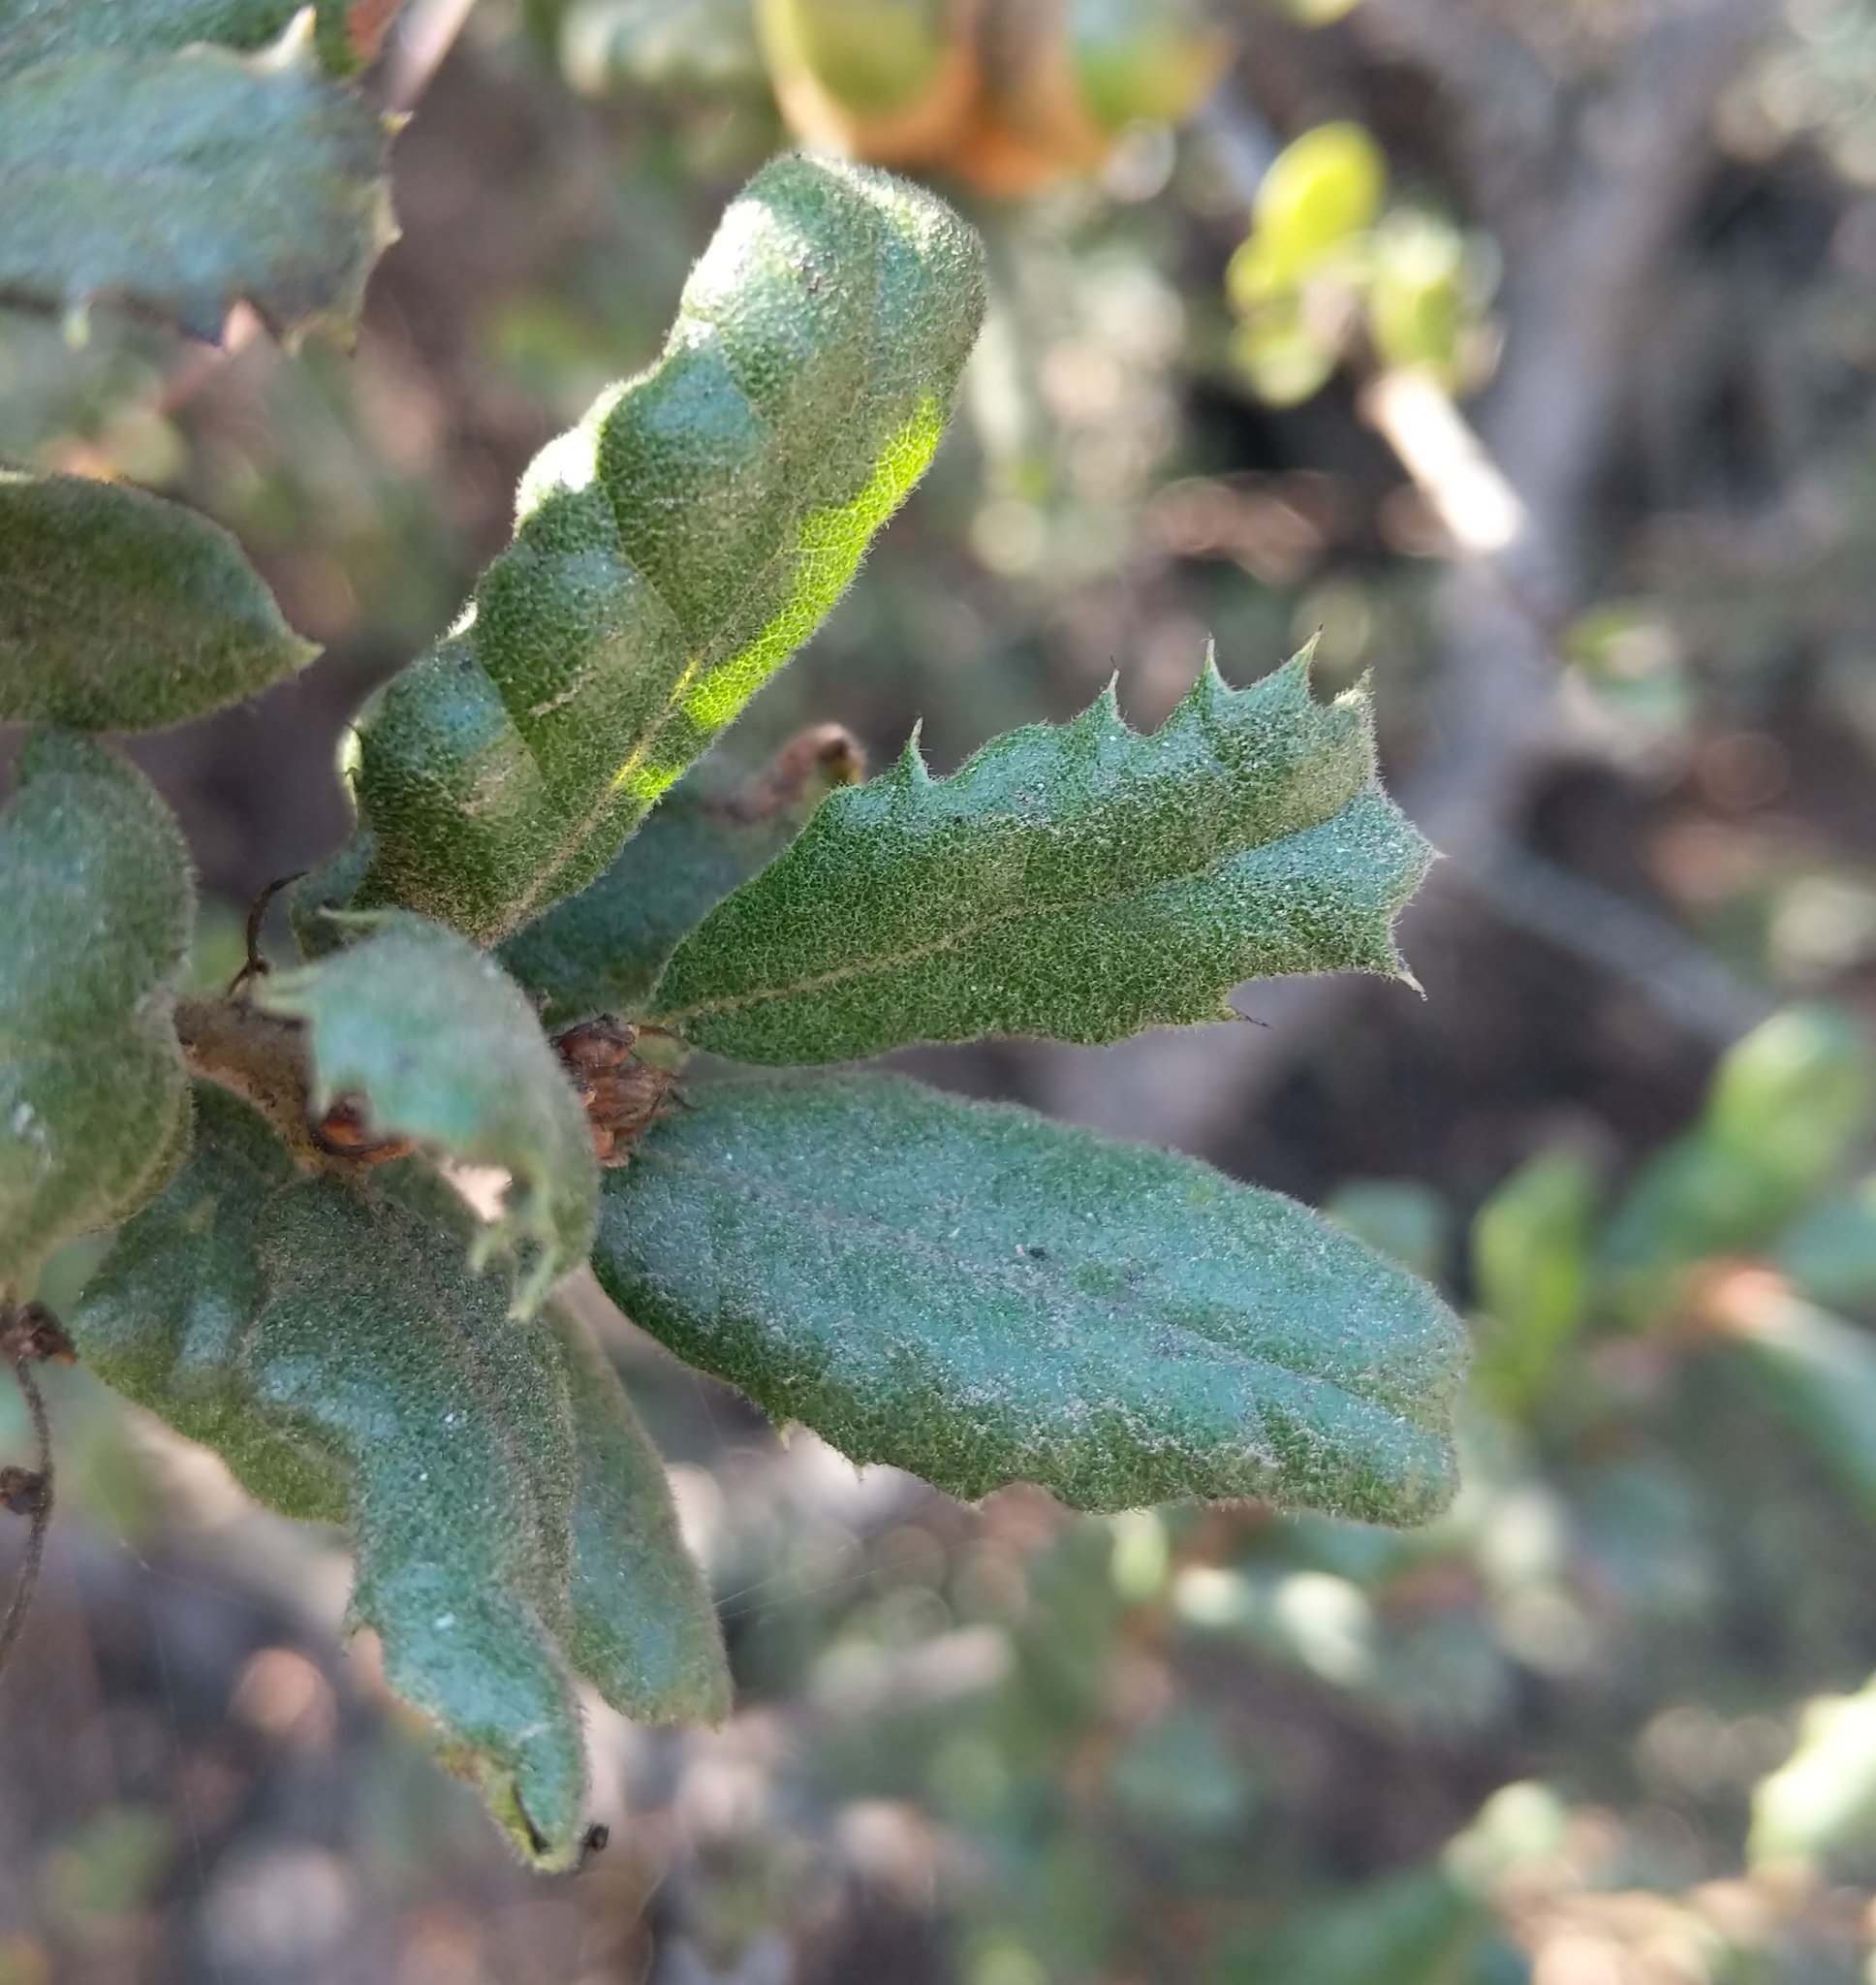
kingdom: Plantae
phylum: Tracheophyta
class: Magnoliopsida
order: Fagales
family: Fagaceae
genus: Quercus
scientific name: Quercus durata
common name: Leather oak
